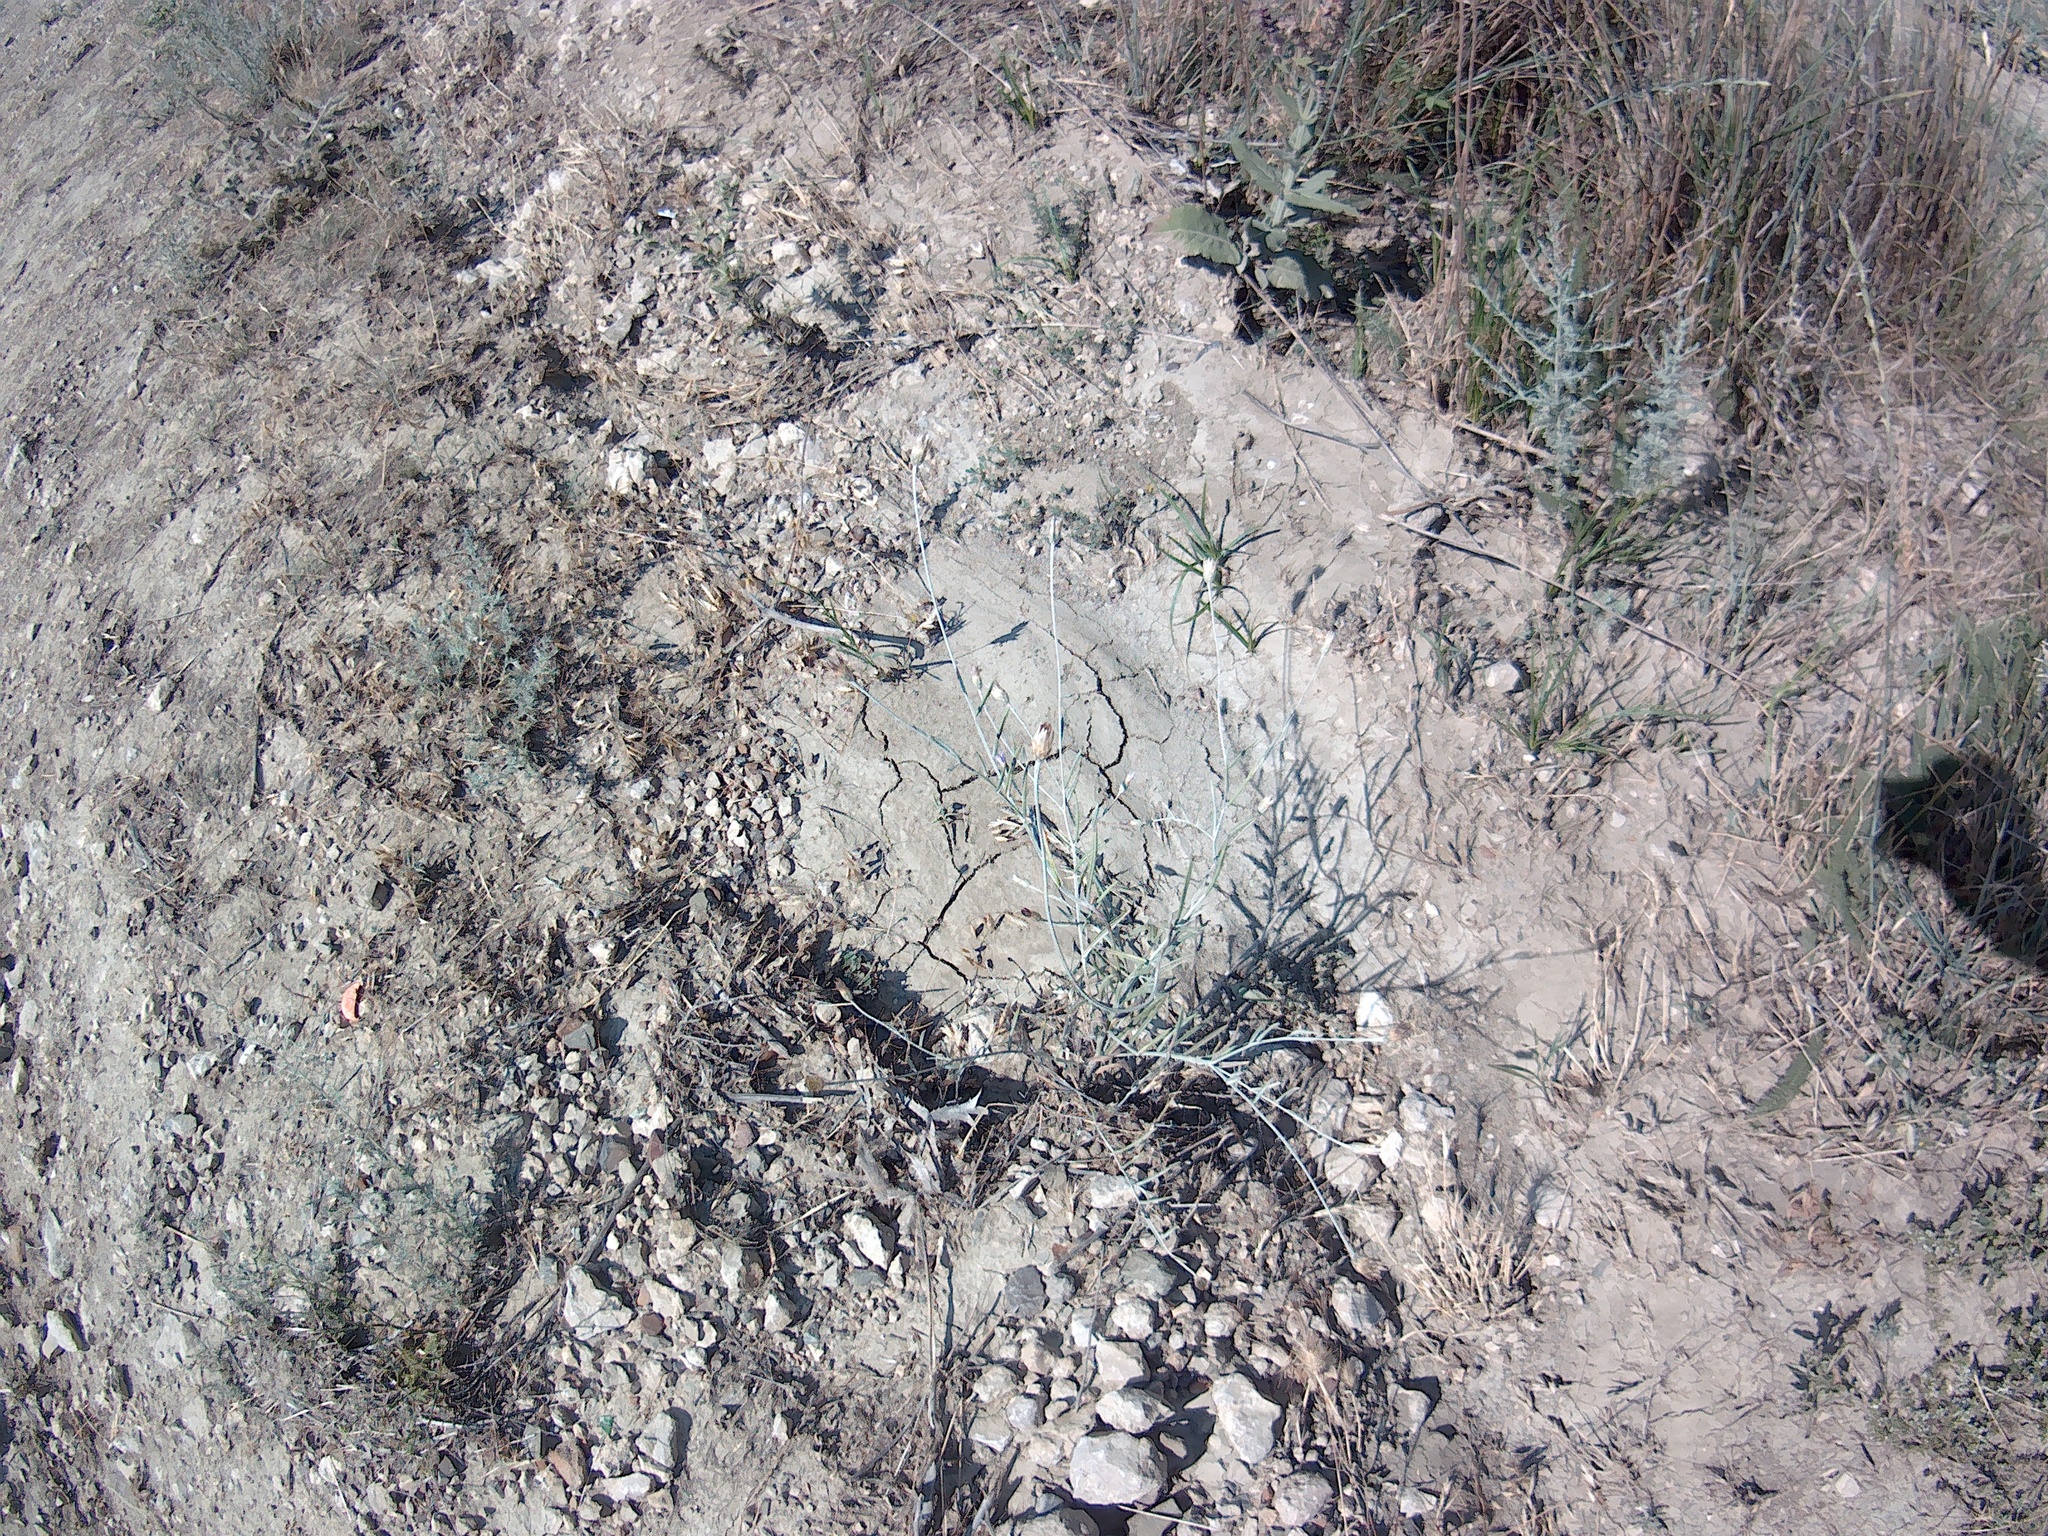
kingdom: Plantae
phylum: Tracheophyta
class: Magnoliopsida
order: Asterales
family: Asteraceae
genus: Xeranthemum
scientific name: Xeranthemum annuum
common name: Immortelle
